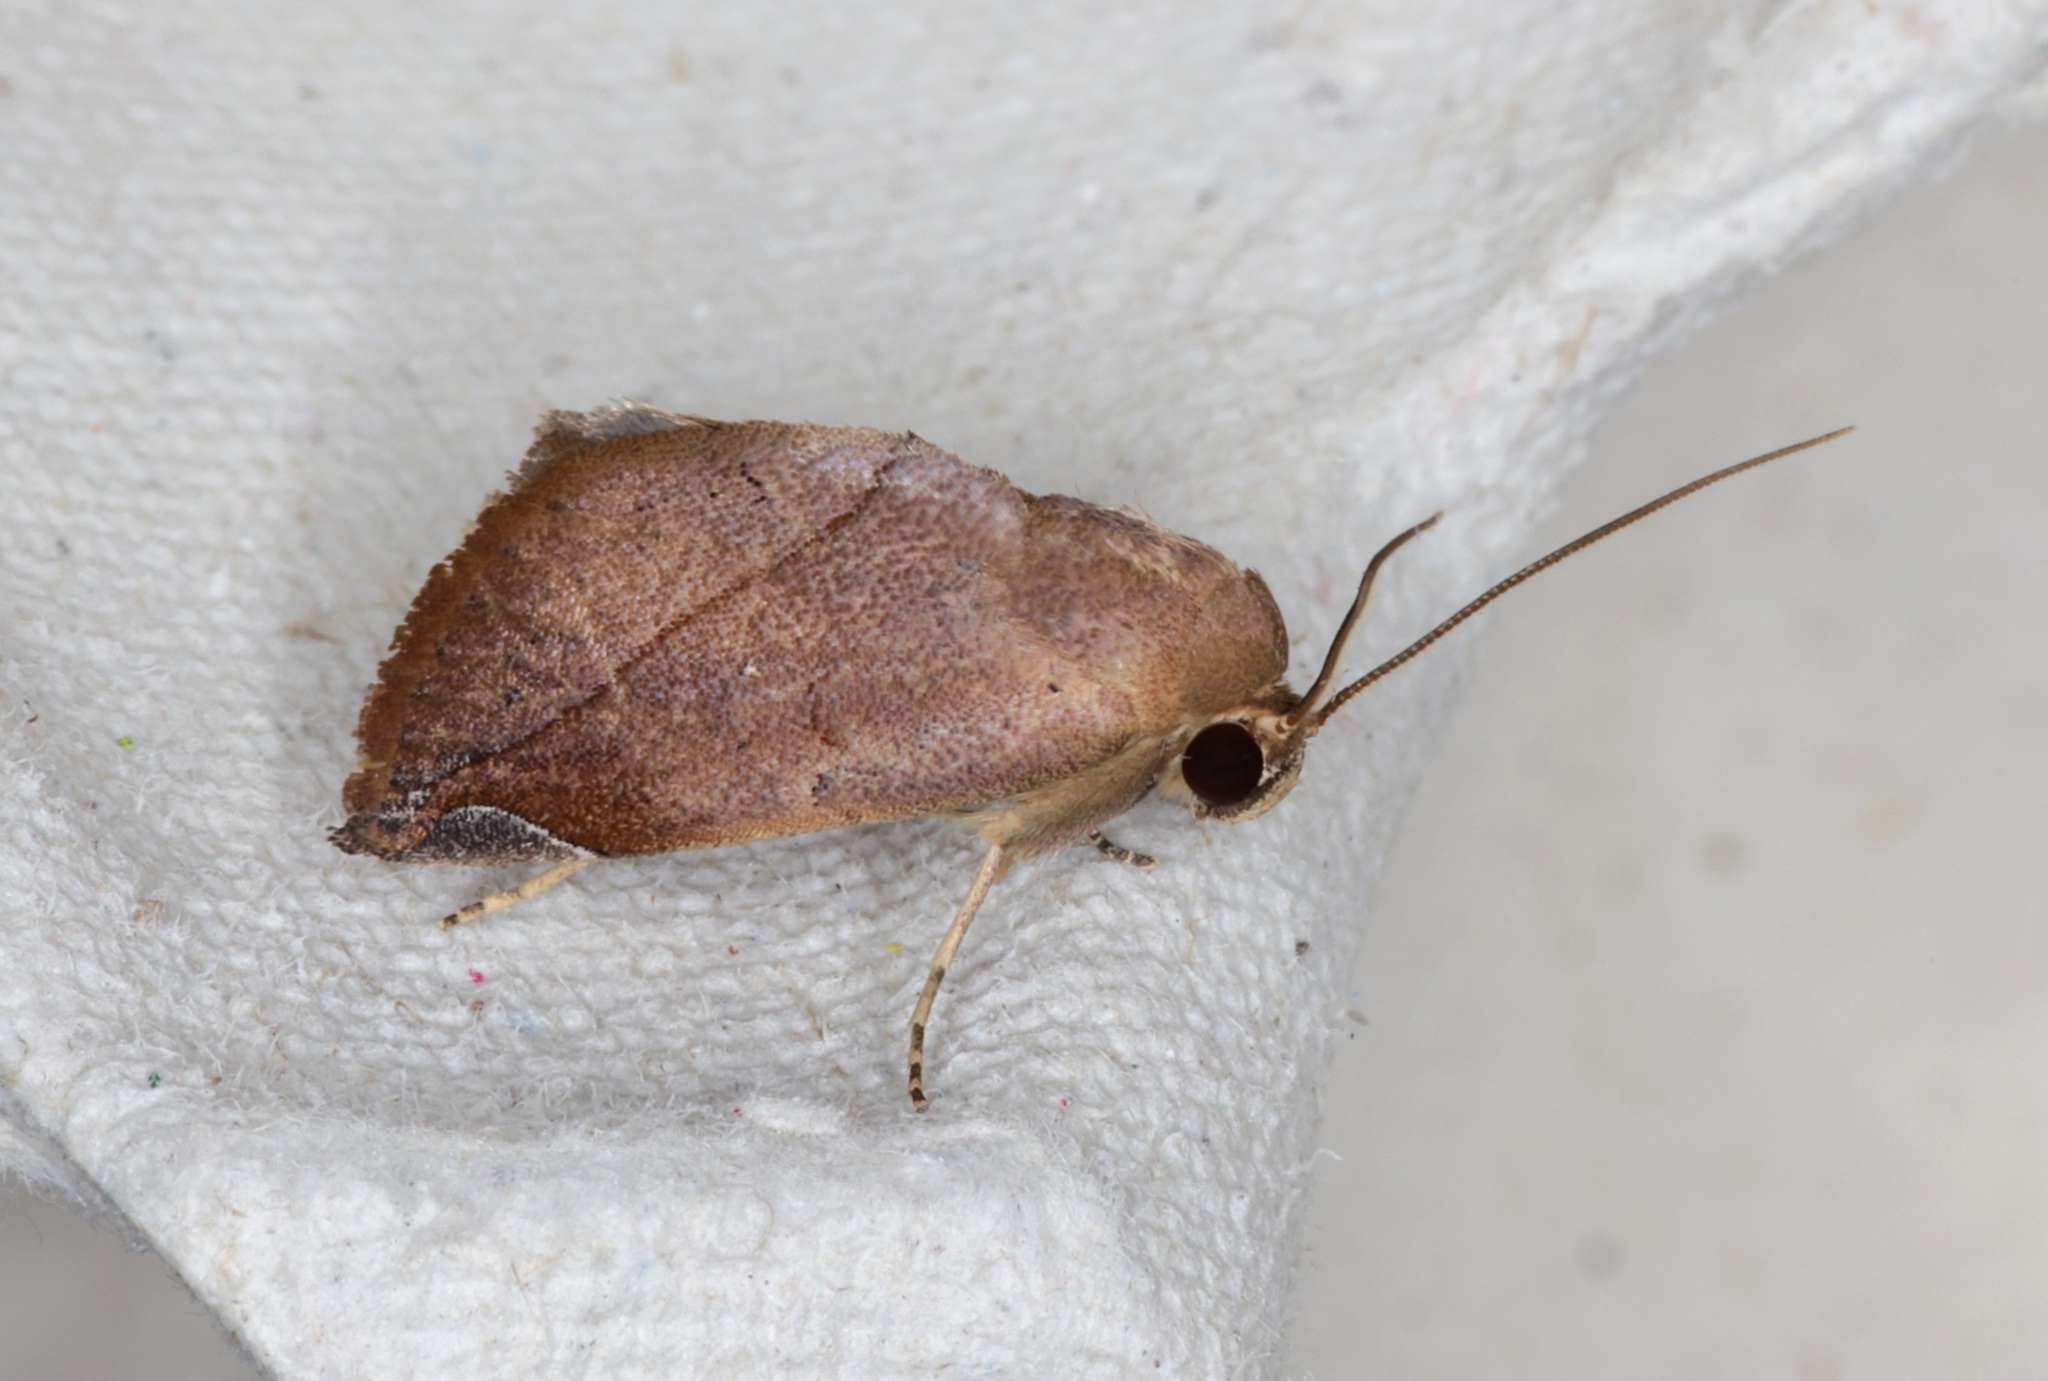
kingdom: Animalia
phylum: Arthropoda
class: Insecta
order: Lepidoptera
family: Nolidae
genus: Negeta
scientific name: Negeta contrariata
